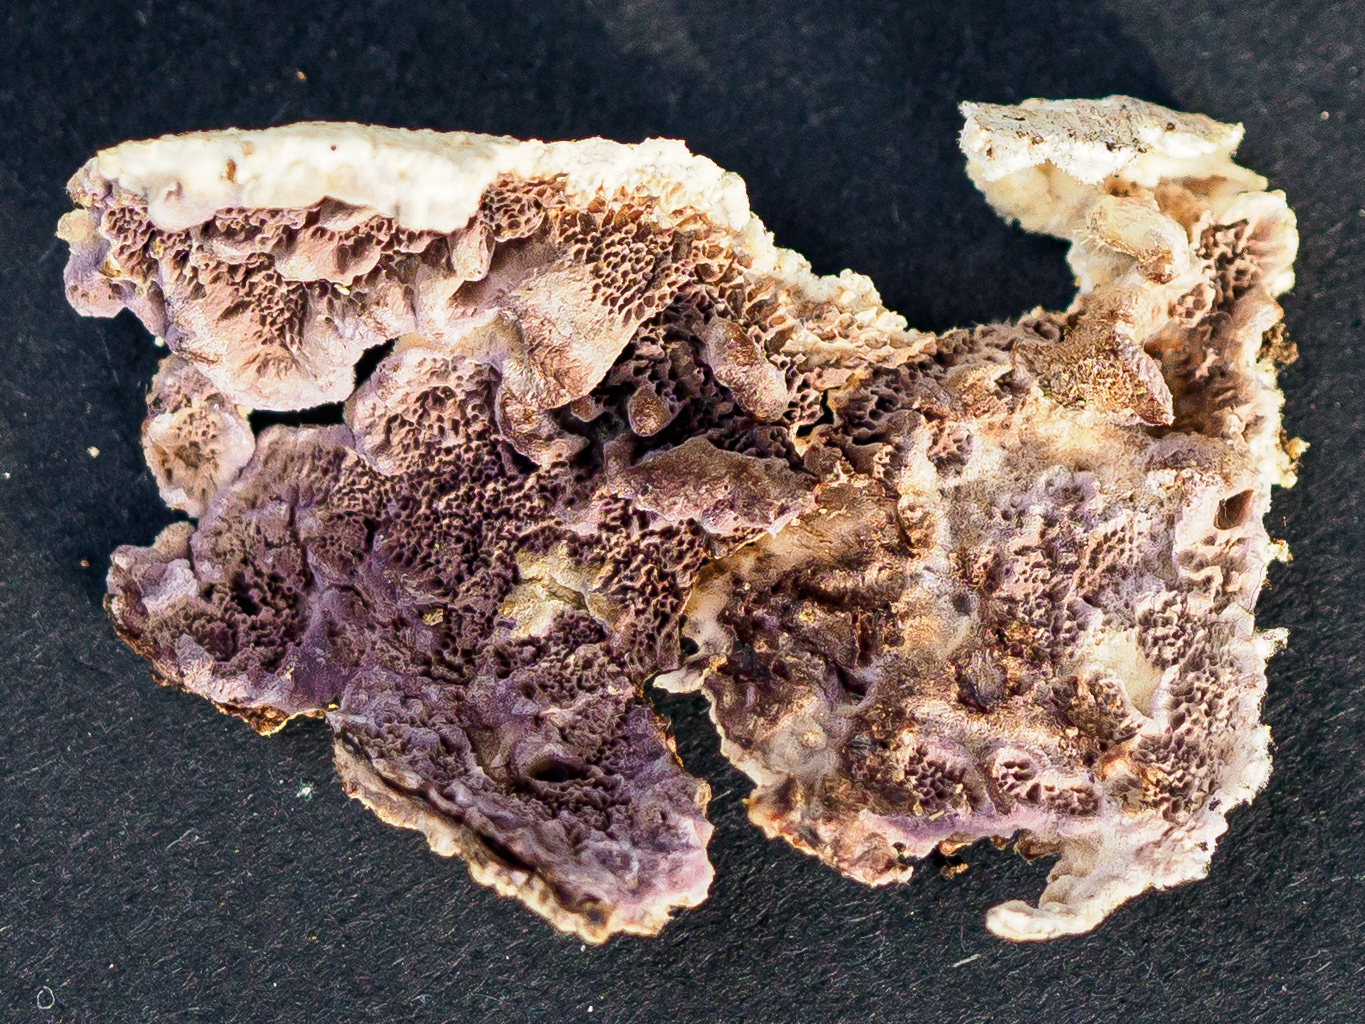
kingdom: Fungi
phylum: Basidiomycota
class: Agaricomycetes
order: Agaricales
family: Cyphellaceae
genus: Chondrostereum
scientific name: Chondrostereum purpureum
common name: Silver leaf disease
